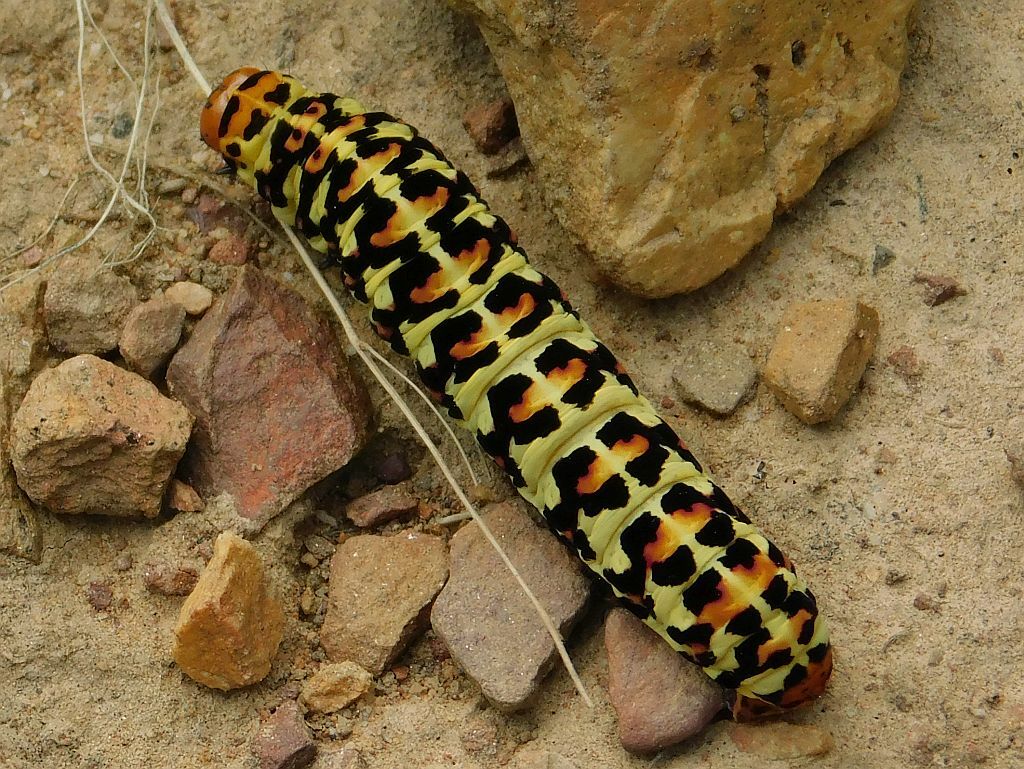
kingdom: Animalia
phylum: Arthropoda
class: Insecta
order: Lepidoptera
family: Noctuidae
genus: Diaphone
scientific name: Diaphone eumela
